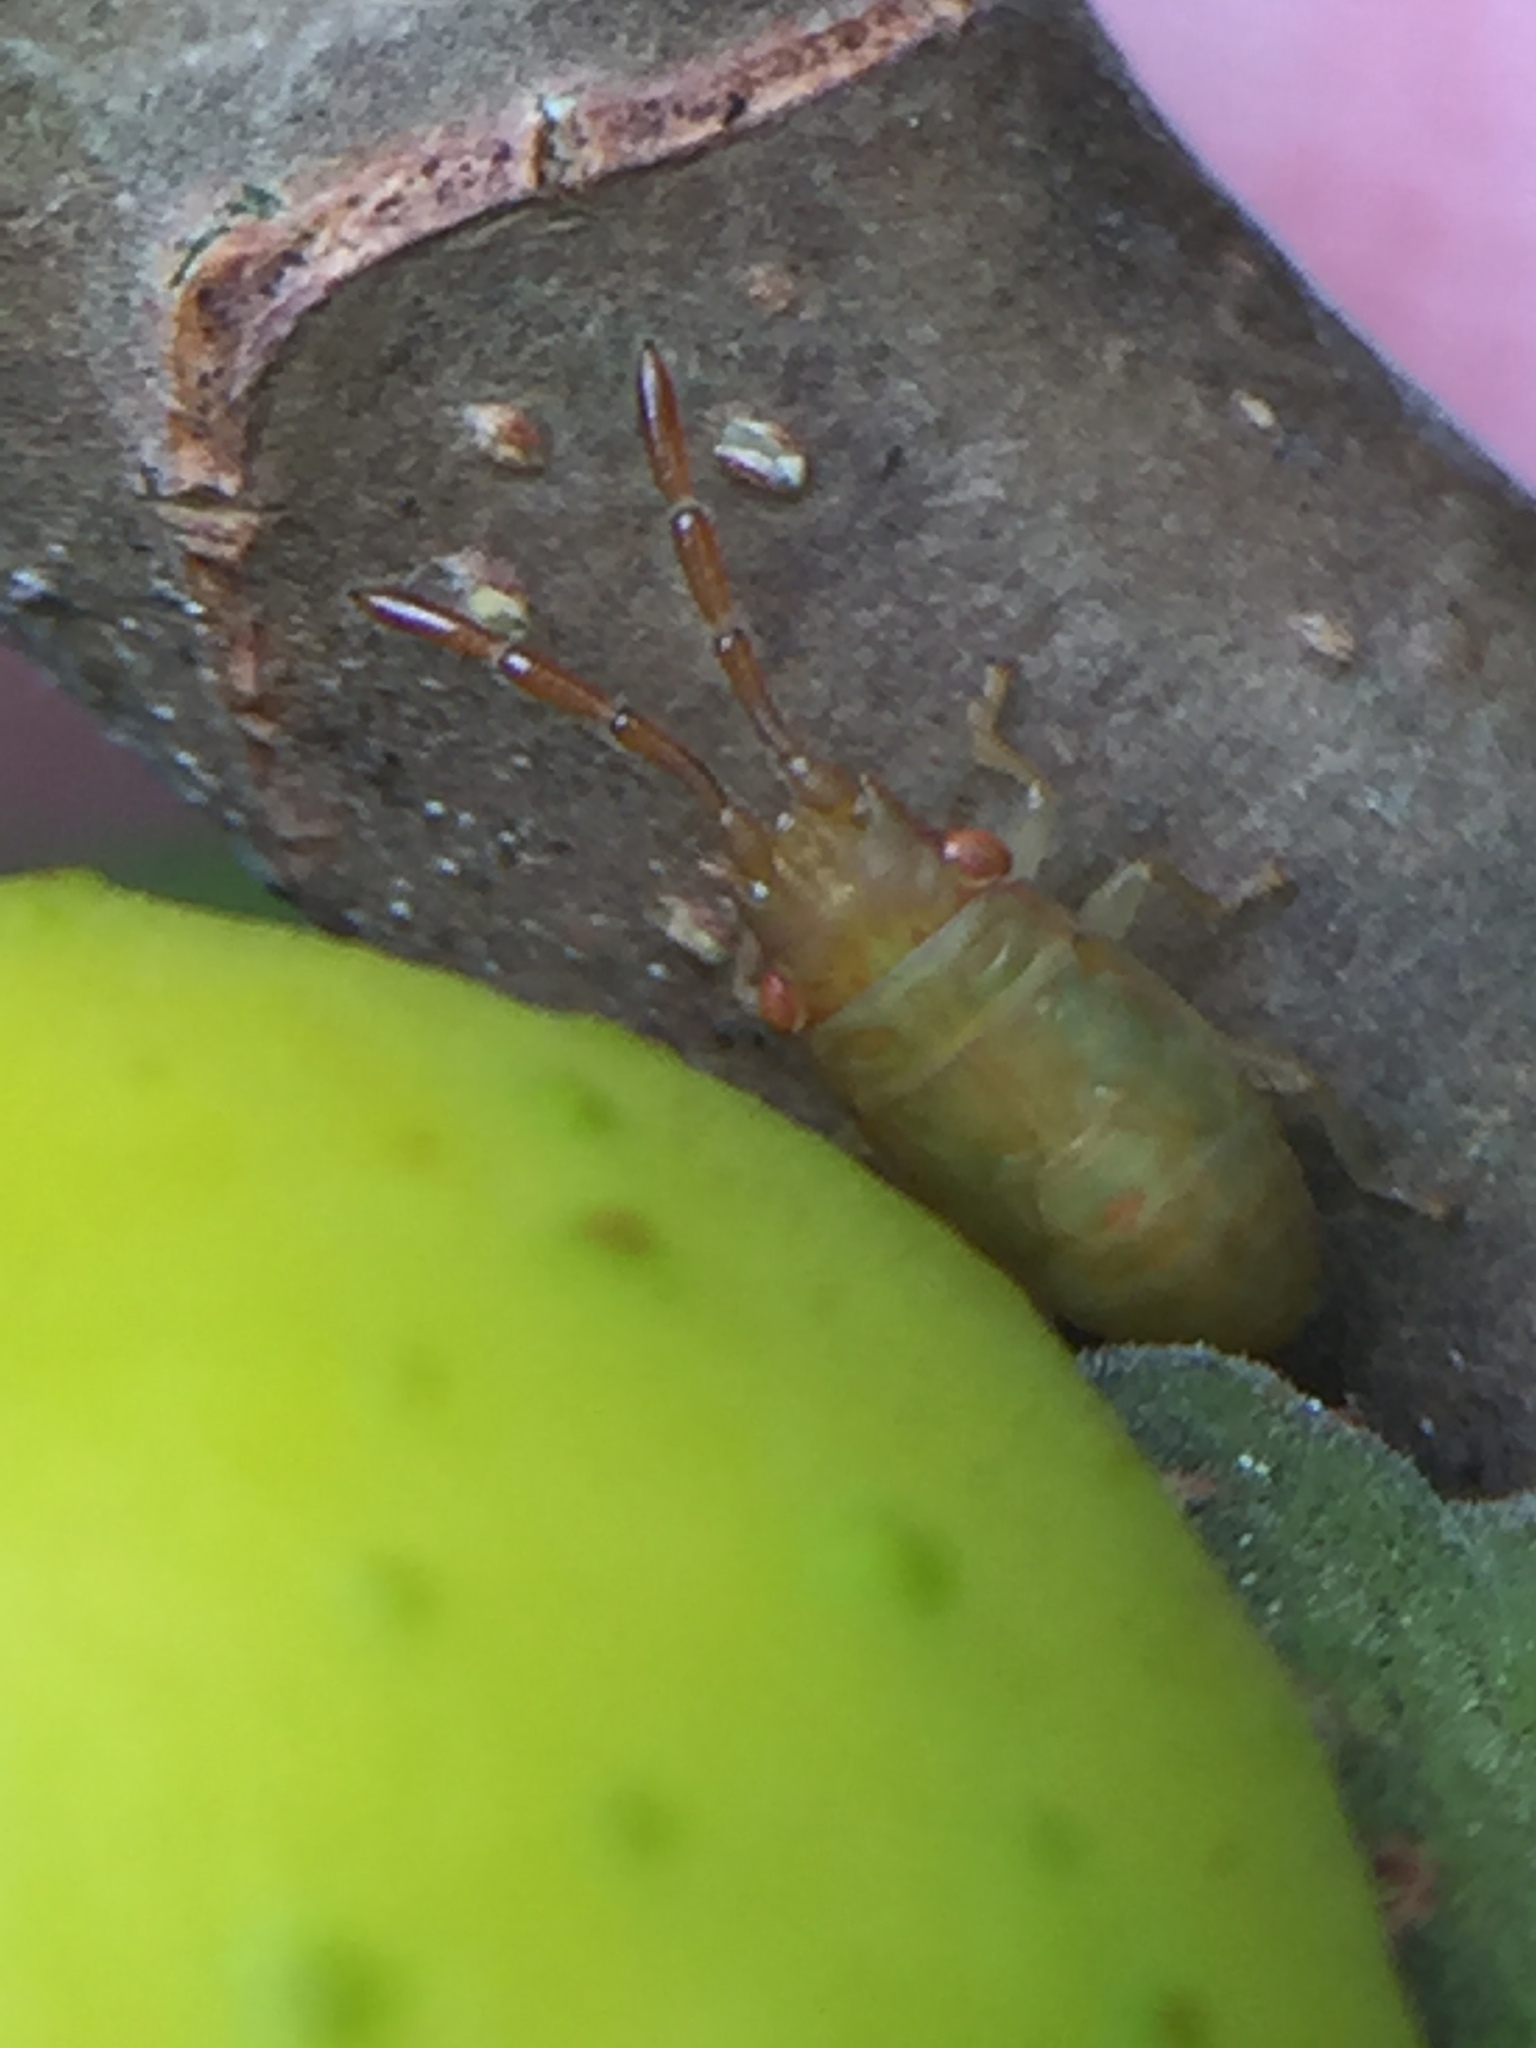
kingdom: Animalia
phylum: Arthropoda
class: Insecta
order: Hemiptera
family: Meschiidae
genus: Meschia
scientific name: Meschia barrowensis
